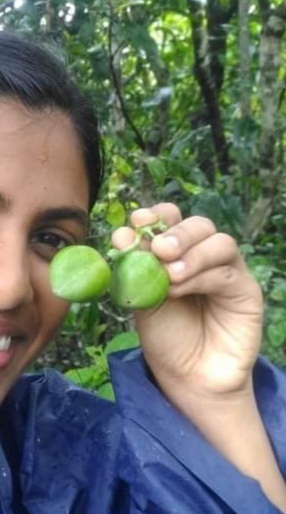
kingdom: Plantae
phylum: Tracheophyta
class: Magnoliopsida
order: Malpighiales
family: Passifloraceae
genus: Adenia
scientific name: Adenia hondala
